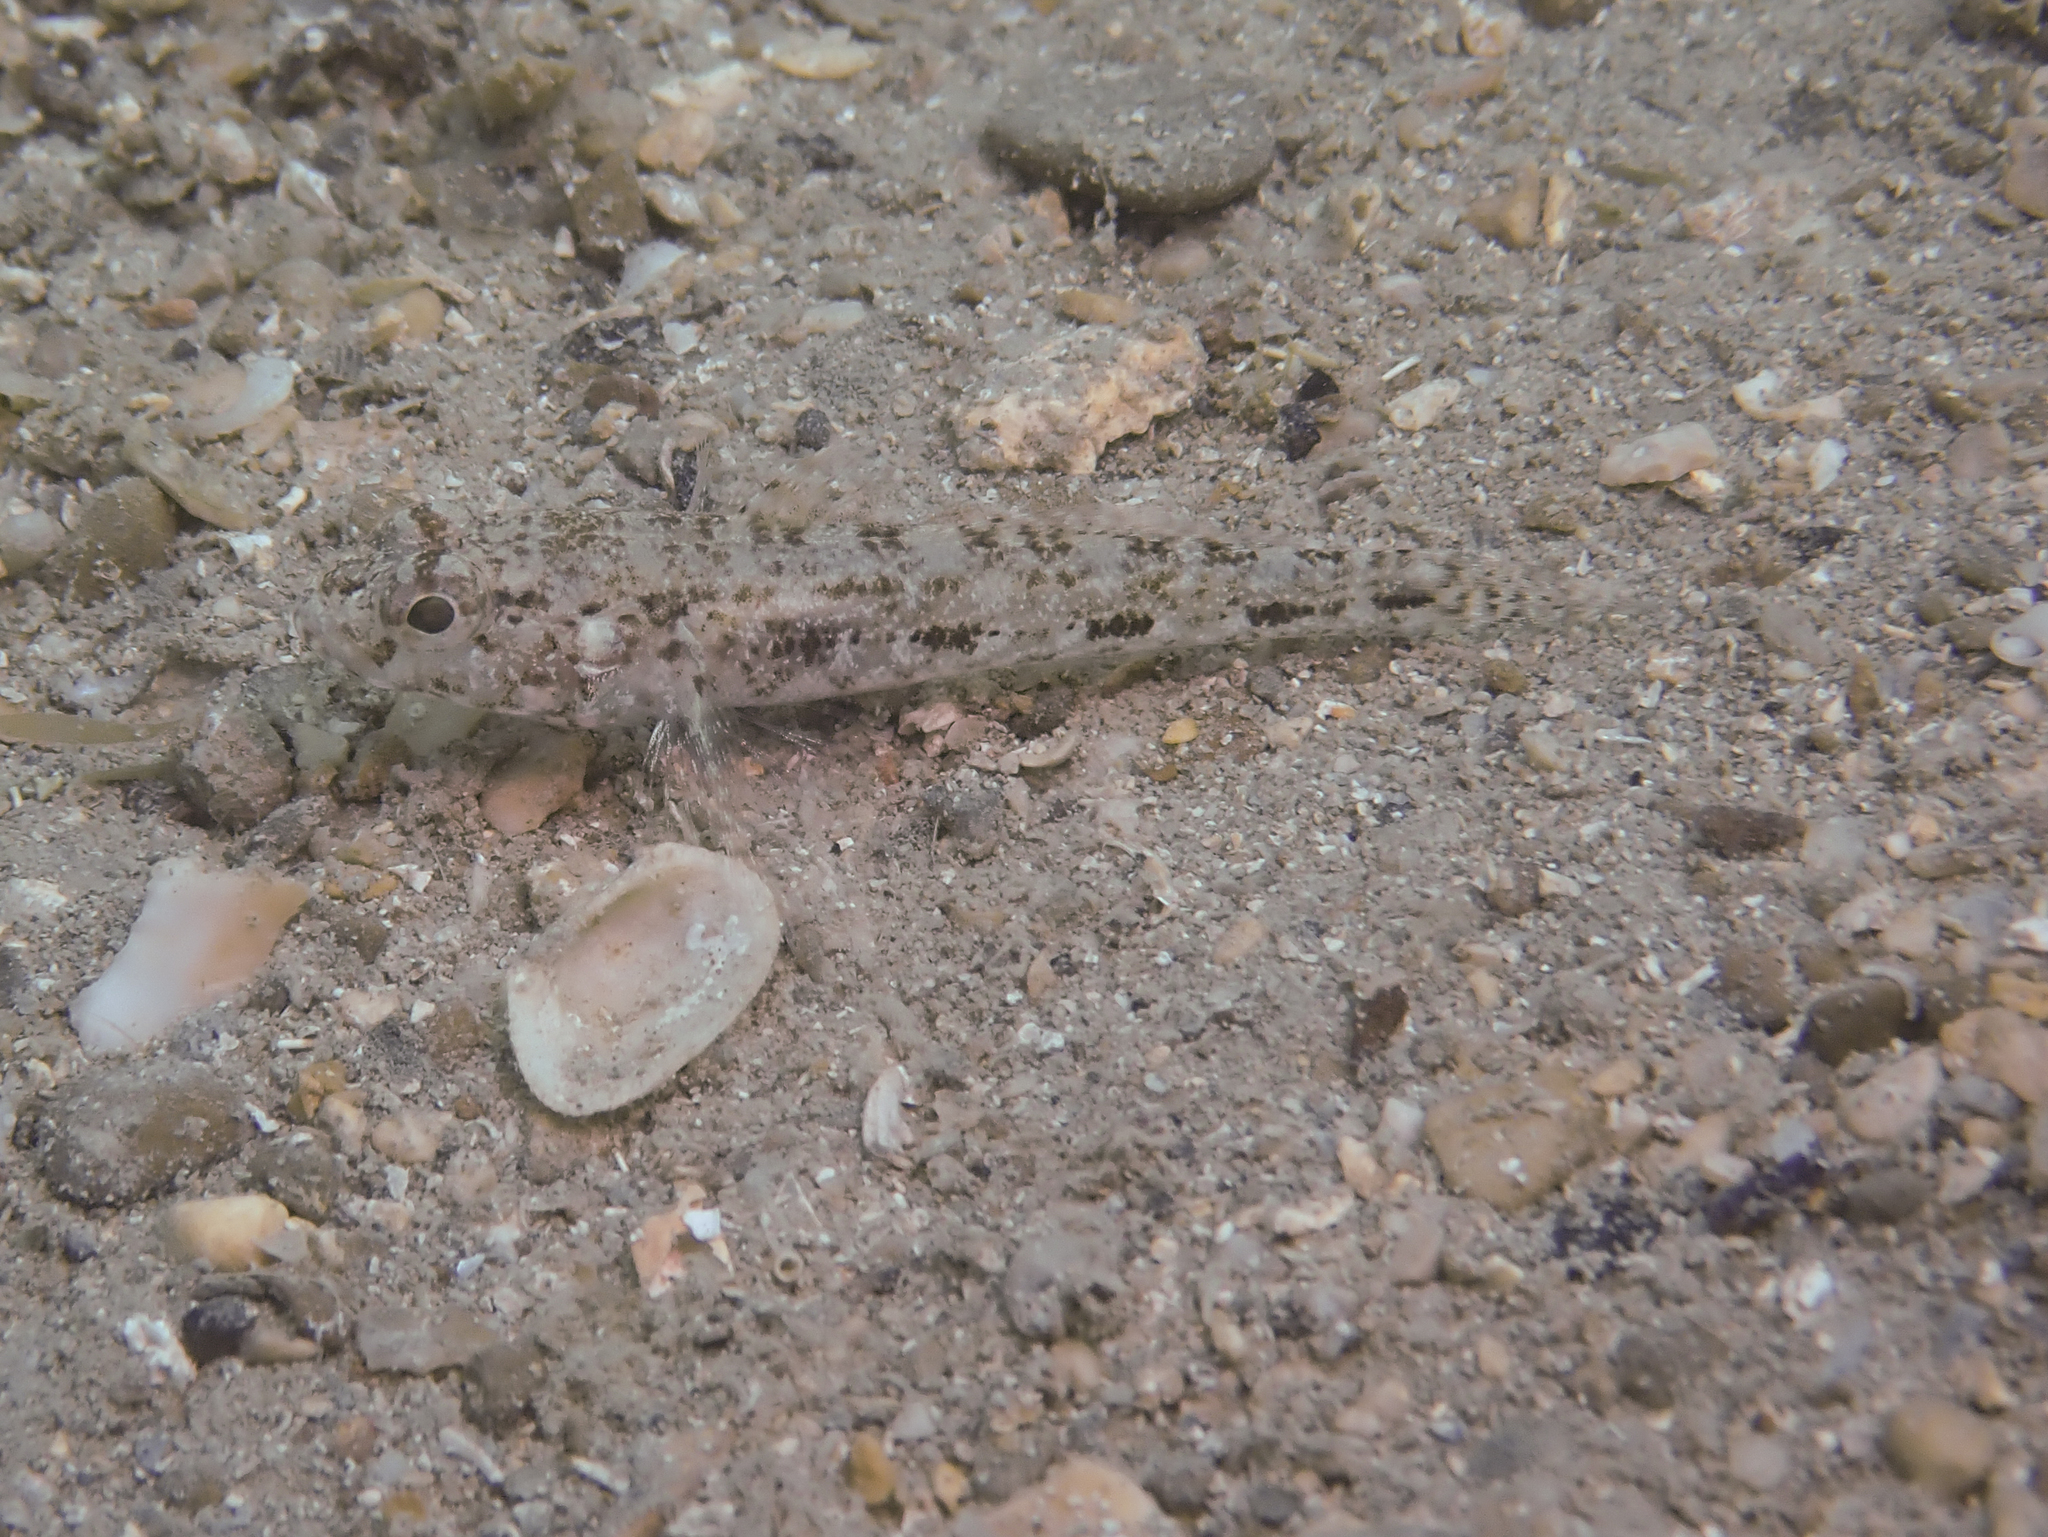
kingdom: Animalia
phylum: Chordata
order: Perciformes
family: Gobiidae
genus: Gobius
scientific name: Gobius cruentatus
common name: Red-mouthed goby
